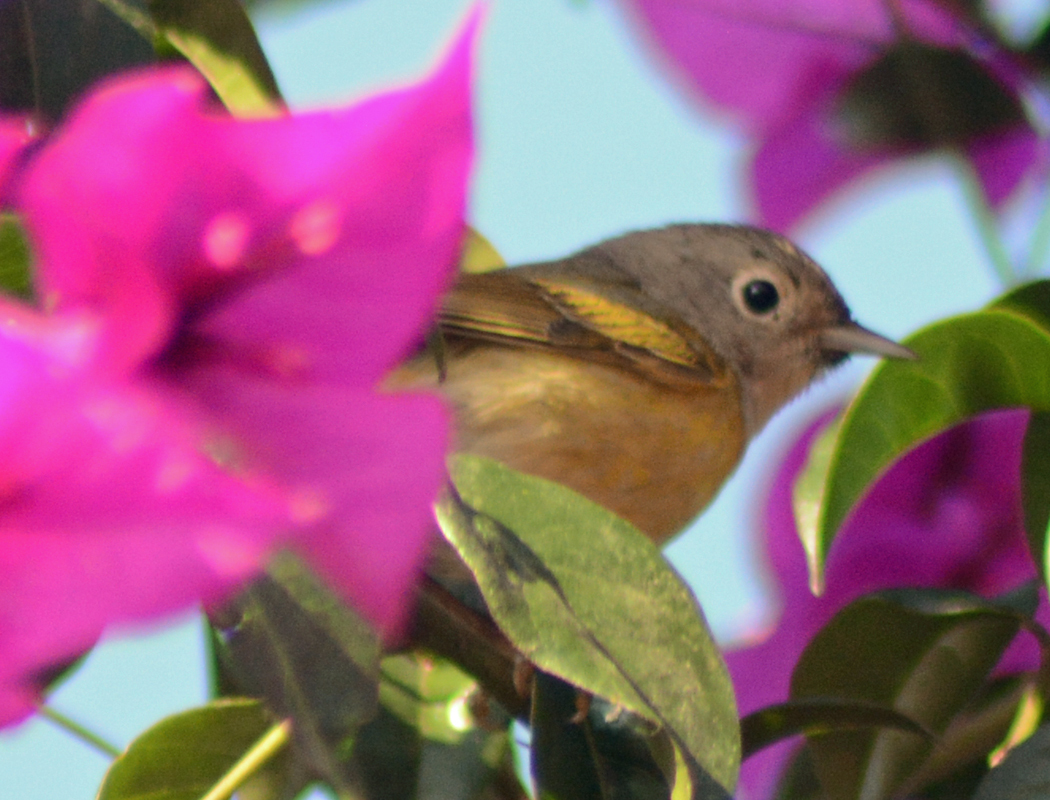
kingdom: Animalia
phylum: Chordata
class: Aves
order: Passeriformes
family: Parulidae
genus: Leiothlypis
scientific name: Leiothlypis ruficapilla
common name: Nashville warbler
